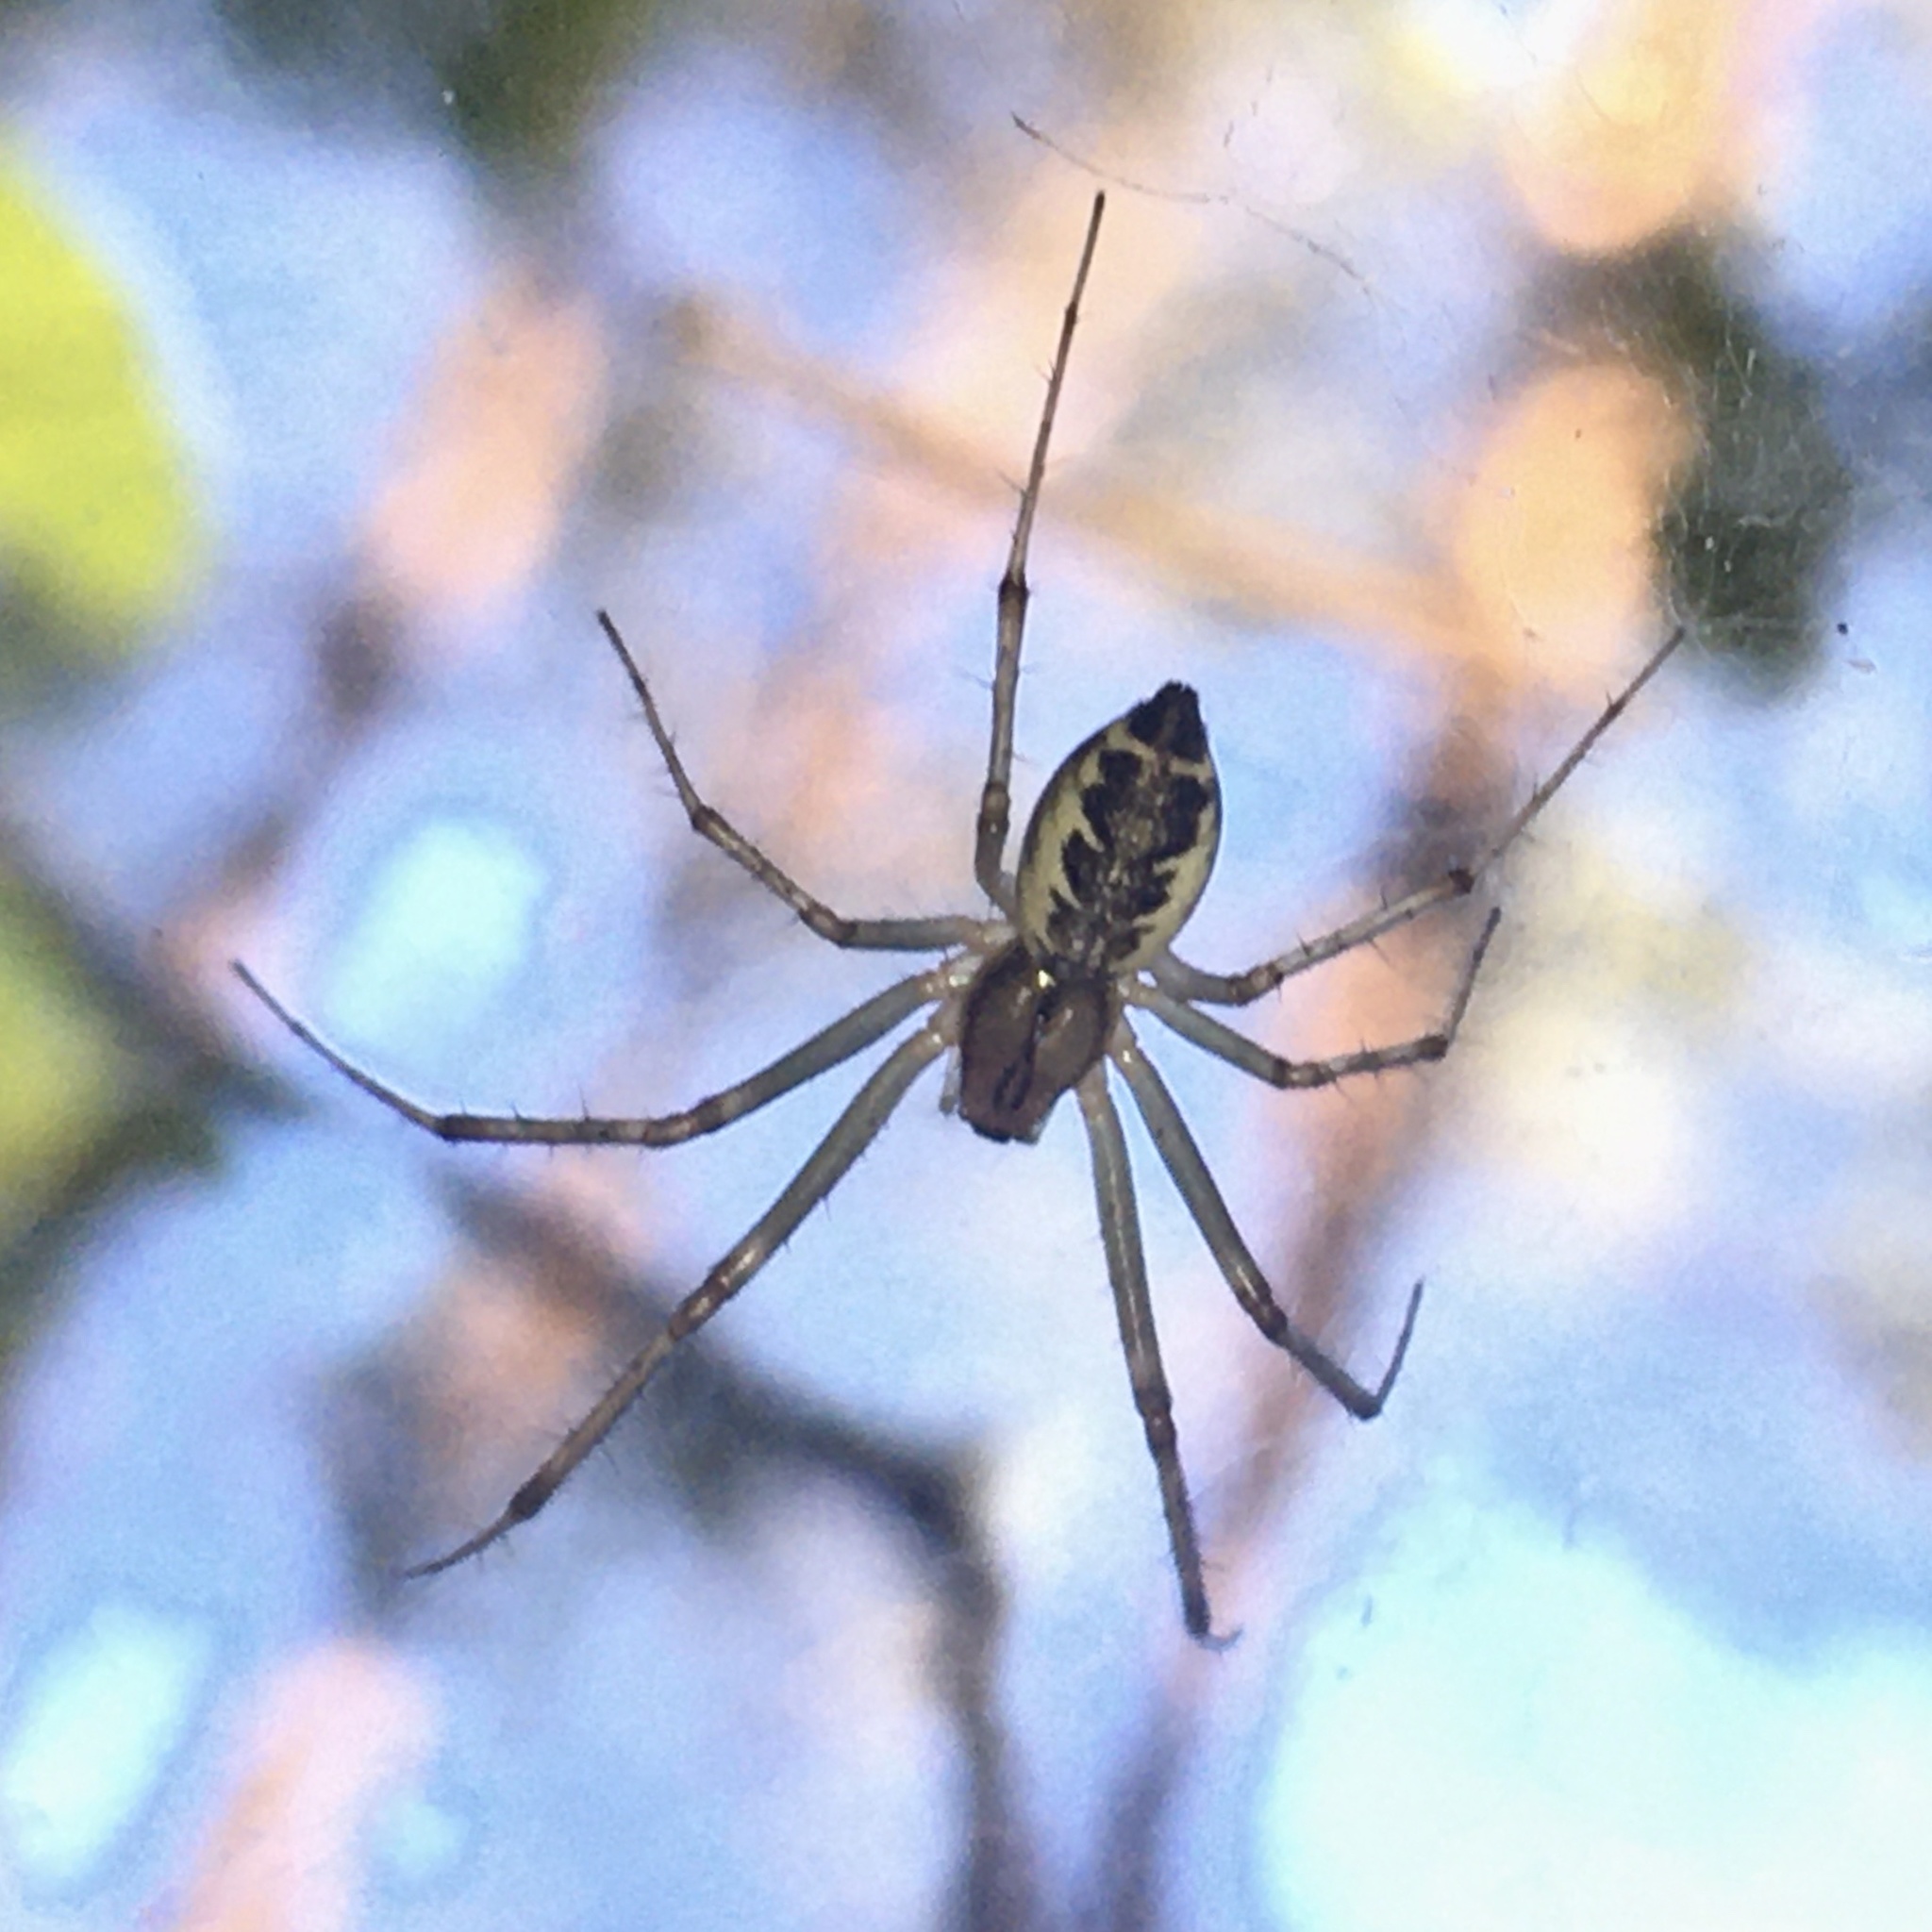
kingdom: Animalia
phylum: Arthropoda
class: Arachnida
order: Araneae
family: Linyphiidae
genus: Linyphia
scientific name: Linyphia triangularis
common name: Money spider
